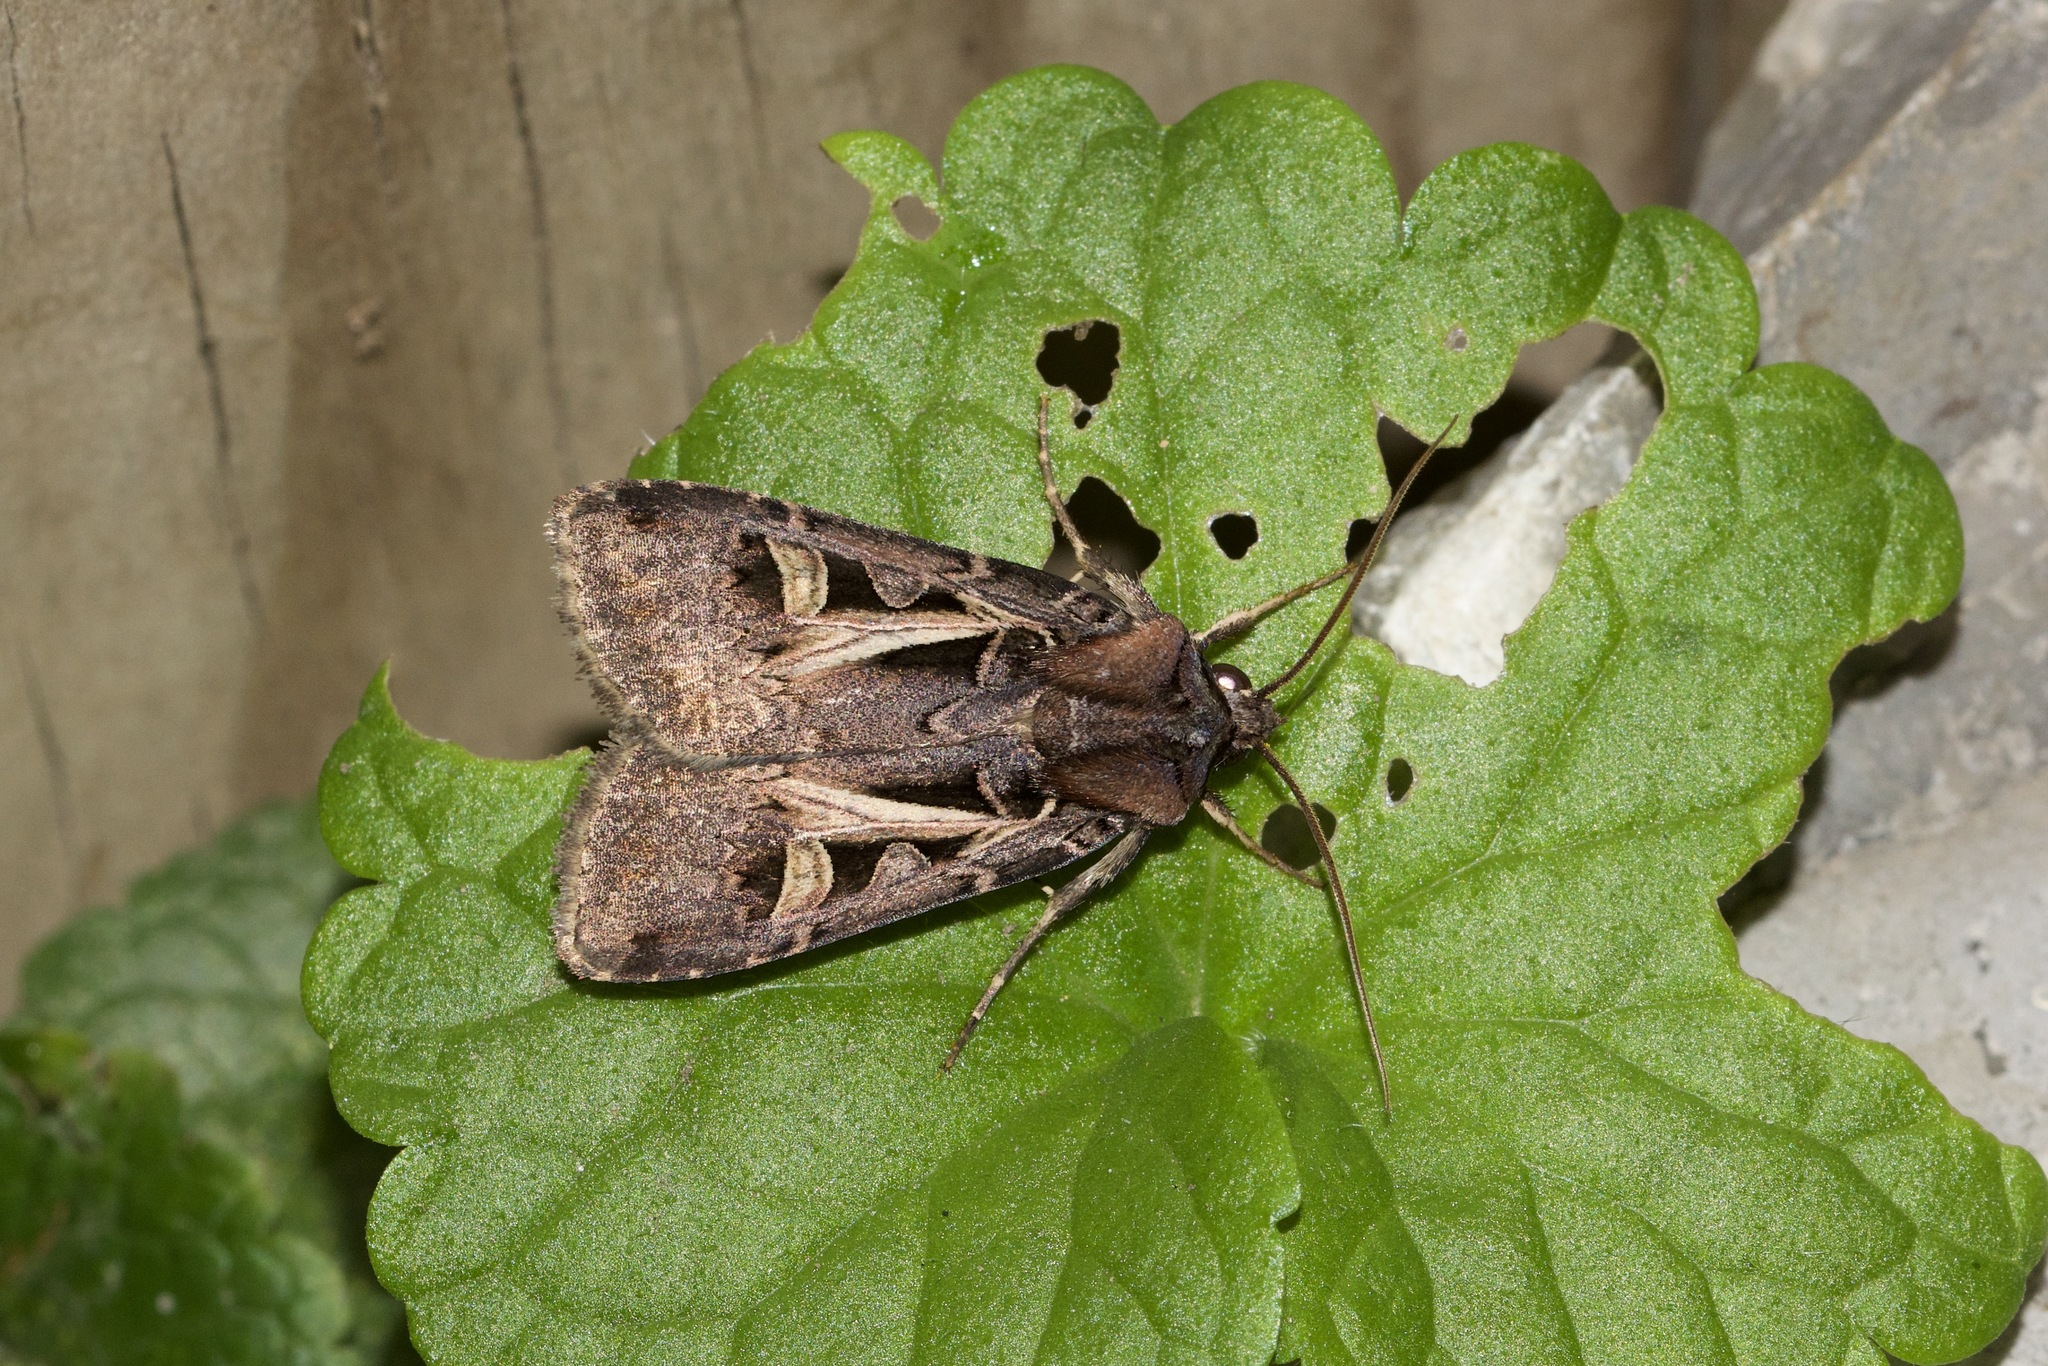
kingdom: Animalia
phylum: Arthropoda
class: Insecta
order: Lepidoptera
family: Noctuidae
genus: Feltia
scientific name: Feltia herilis
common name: Master's dart
